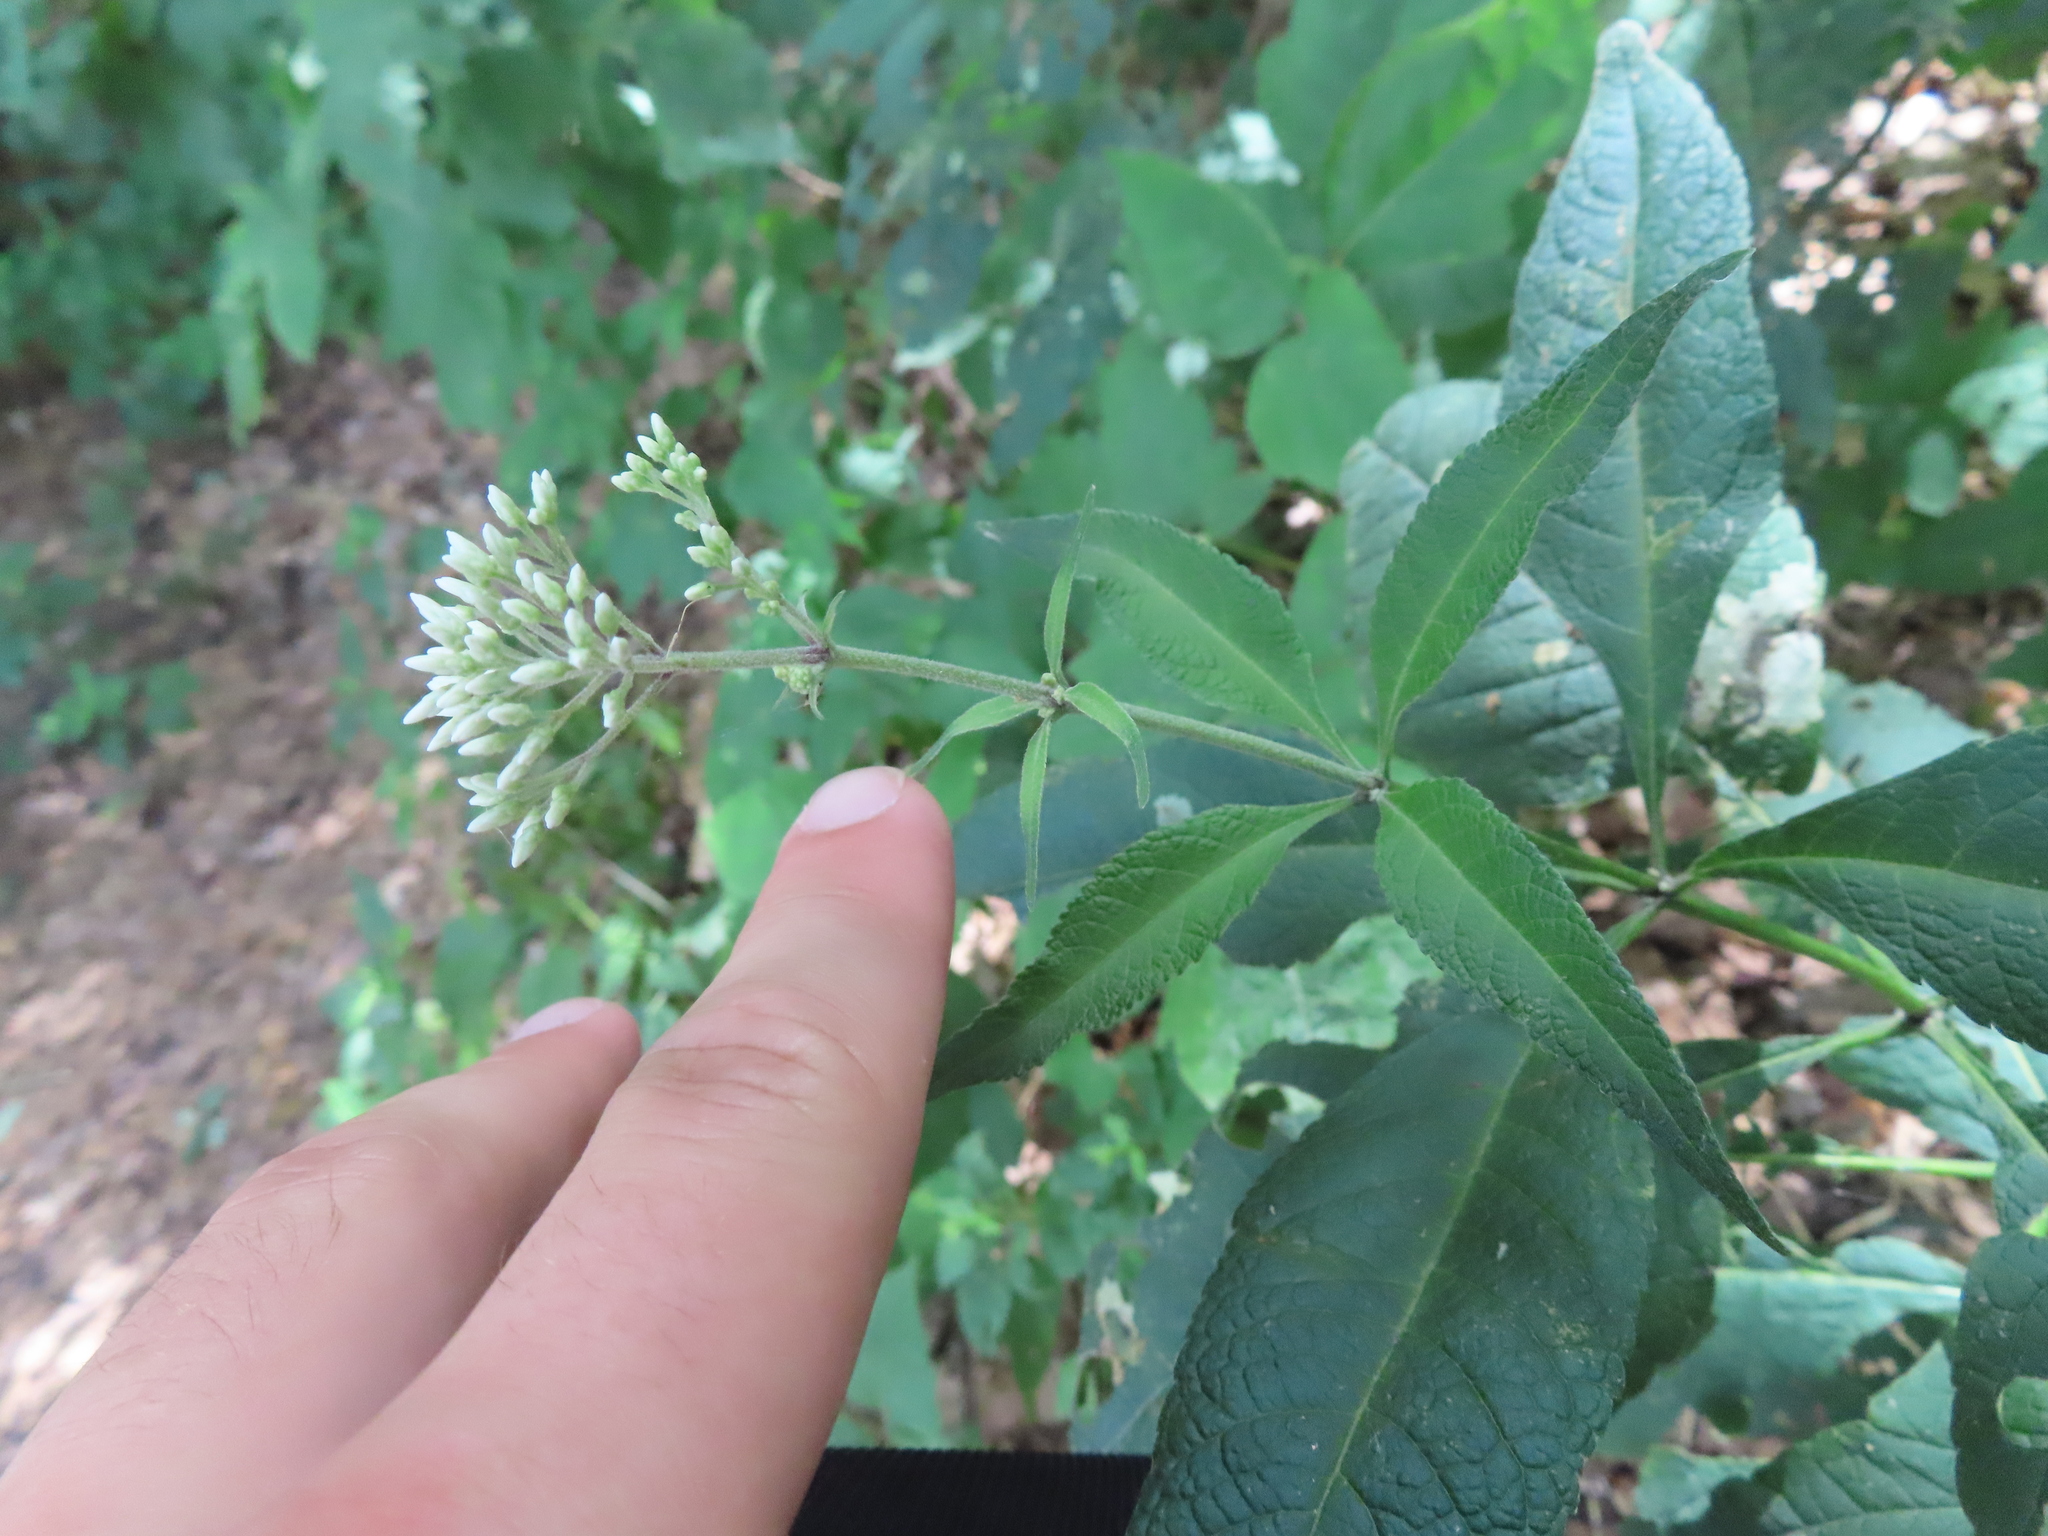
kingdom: Plantae
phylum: Tracheophyta
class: Magnoliopsida
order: Asterales
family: Asteraceae
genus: Eutrochium
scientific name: Eutrochium purpureum
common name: Gravelroot
